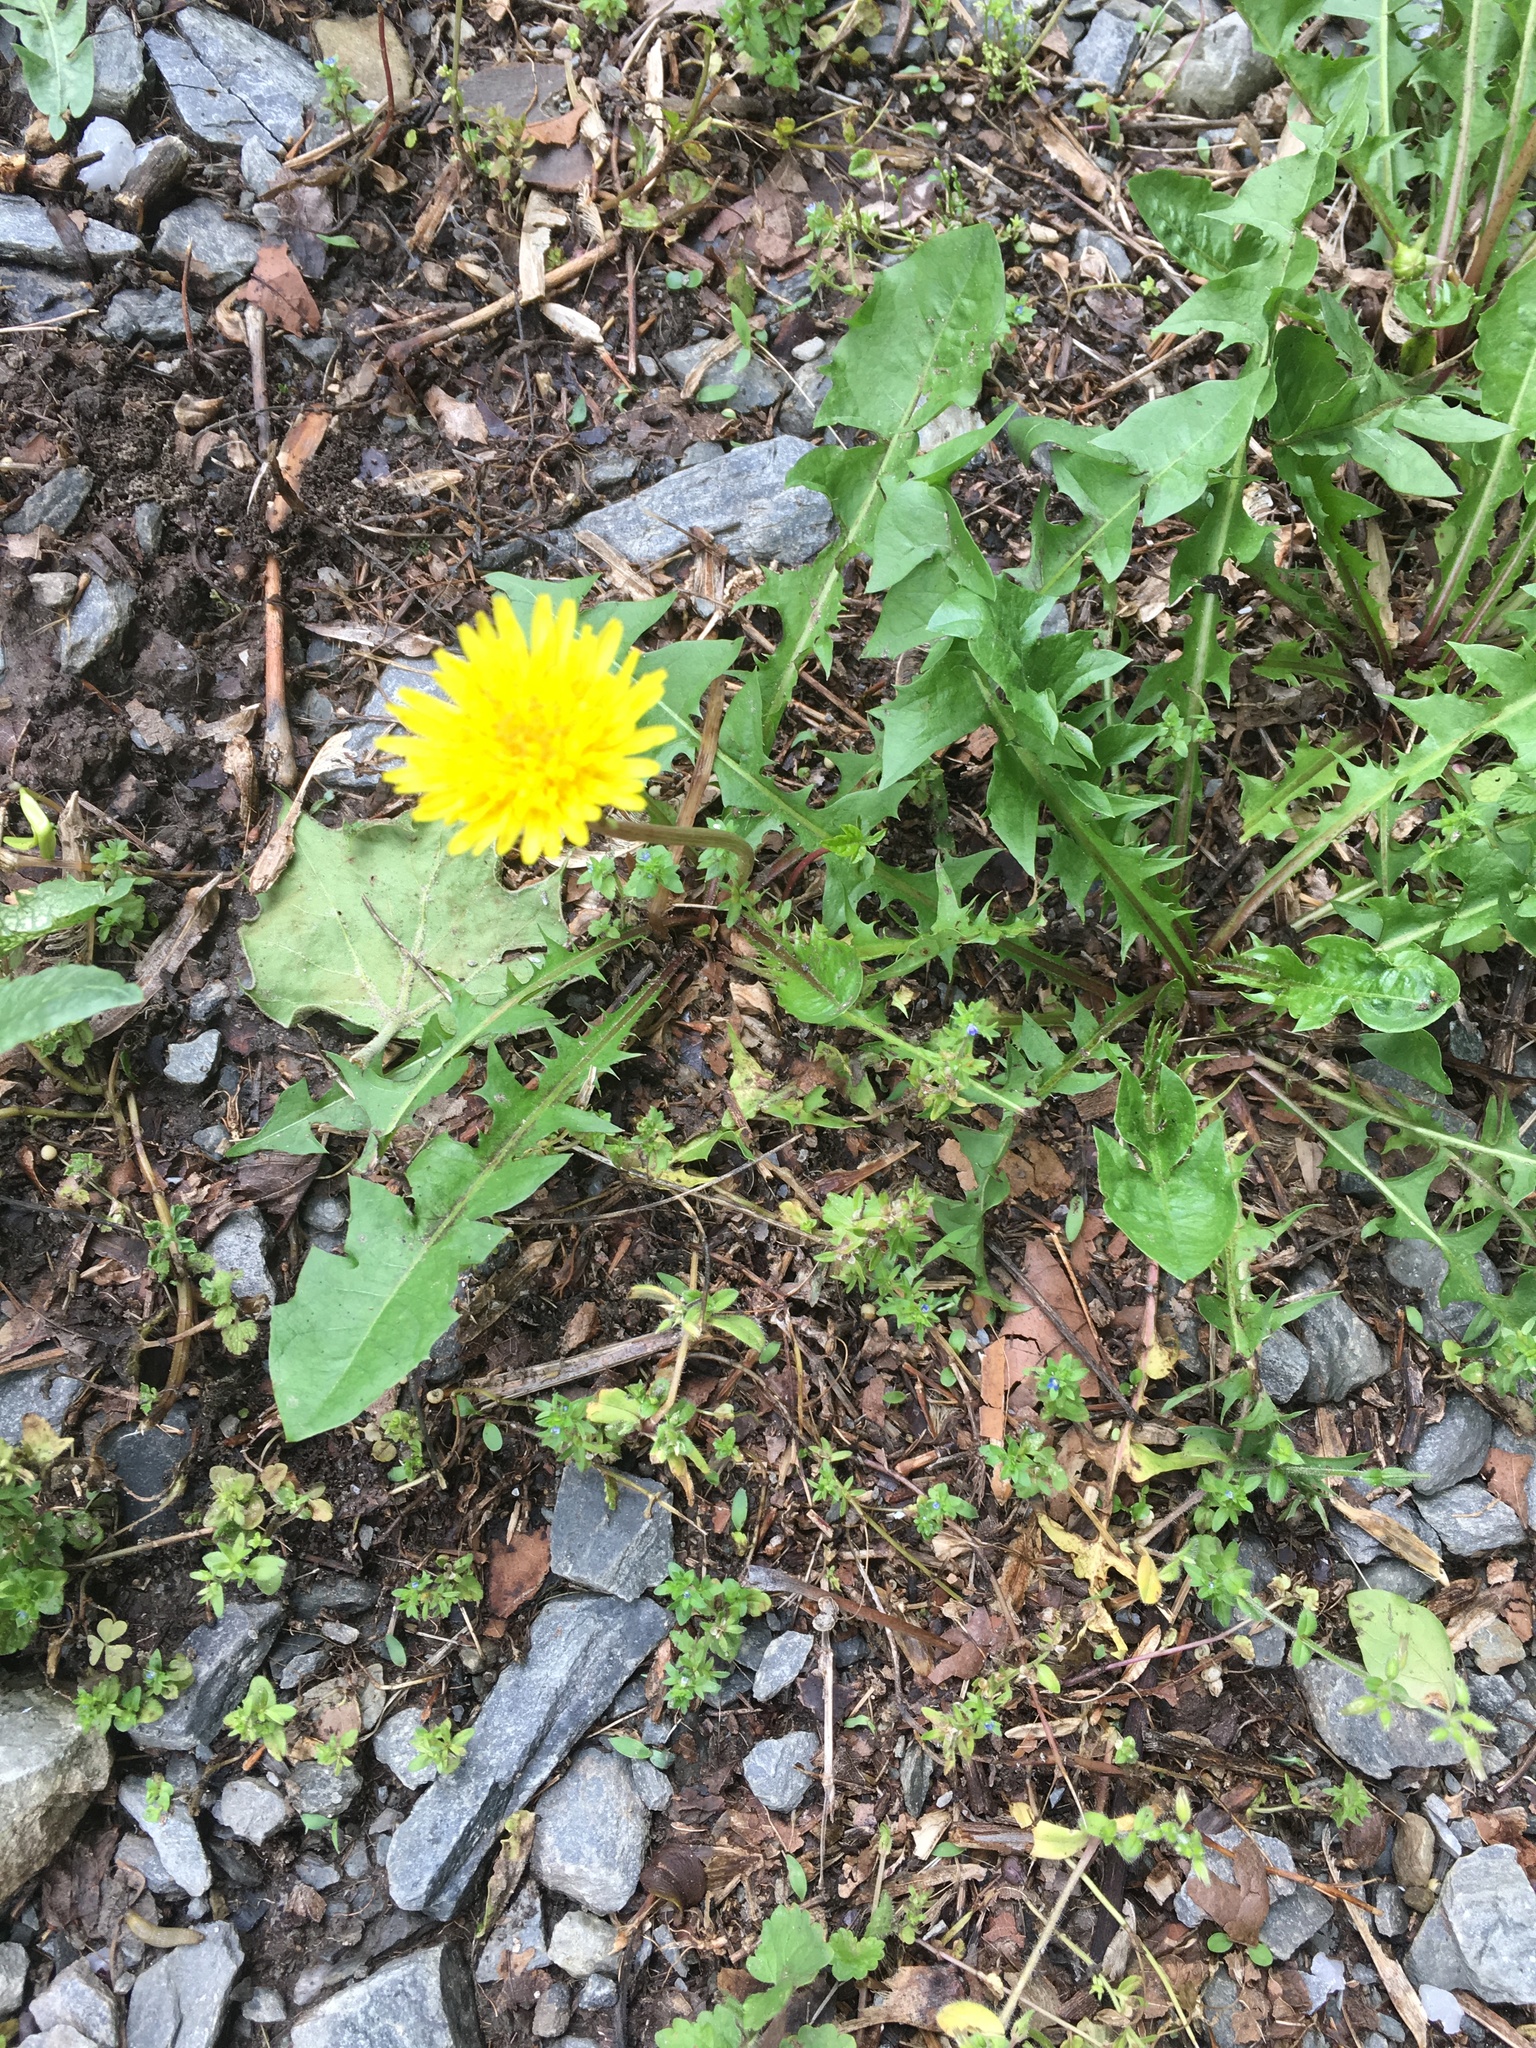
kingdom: Plantae
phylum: Tracheophyta
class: Magnoliopsida
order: Asterales
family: Asteraceae
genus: Taraxacum
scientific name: Taraxacum officinale
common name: Common dandelion
